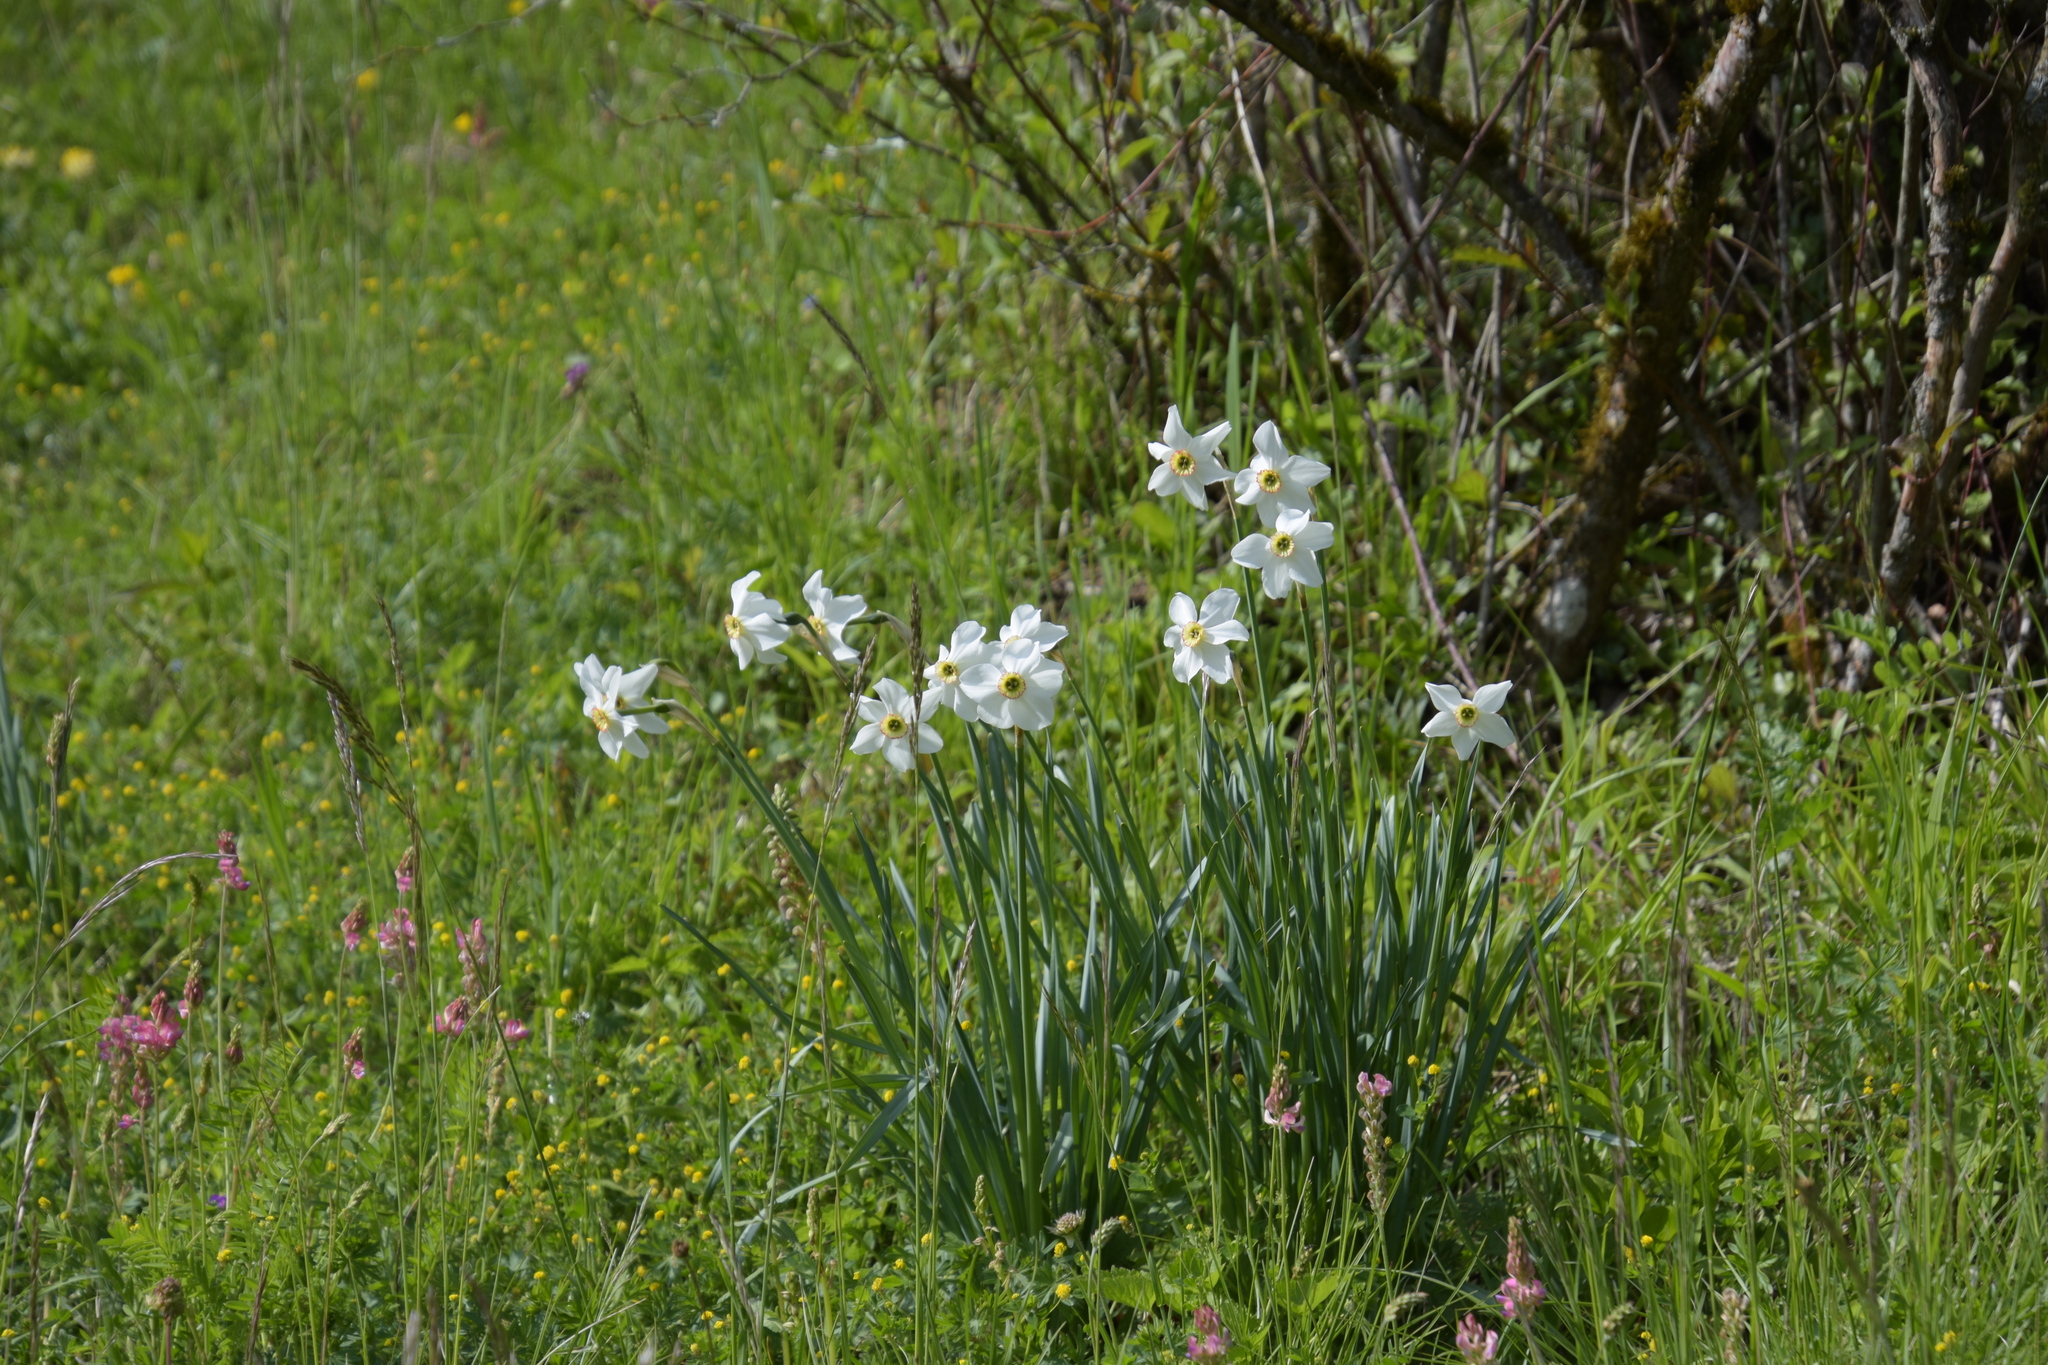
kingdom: Plantae
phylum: Tracheophyta
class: Liliopsida
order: Asparagales
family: Amaryllidaceae
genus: Narcissus
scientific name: Narcissus poeticus
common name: Pheasant's-eye daffodil
